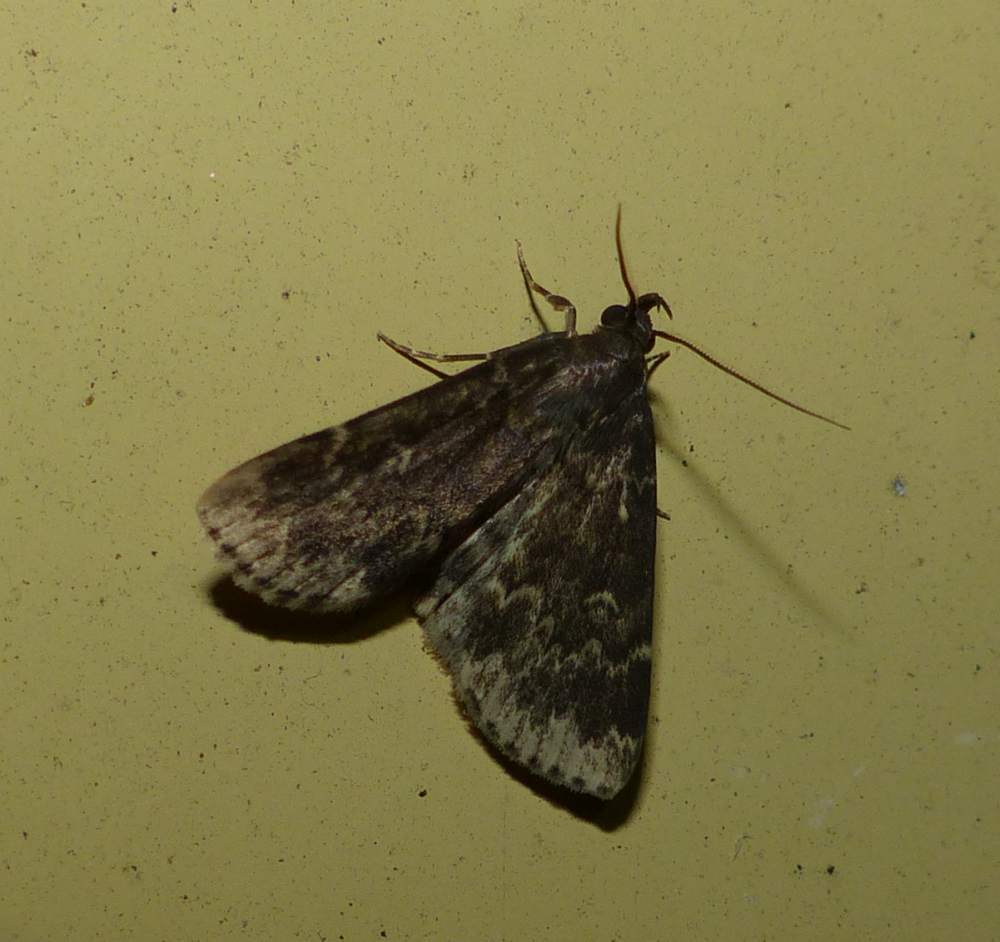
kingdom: Animalia
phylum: Arthropoda
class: Insecta
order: Lepidoptera
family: Erebidae
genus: Idia
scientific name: Idia lubricalis
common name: Twin-striped tabby
